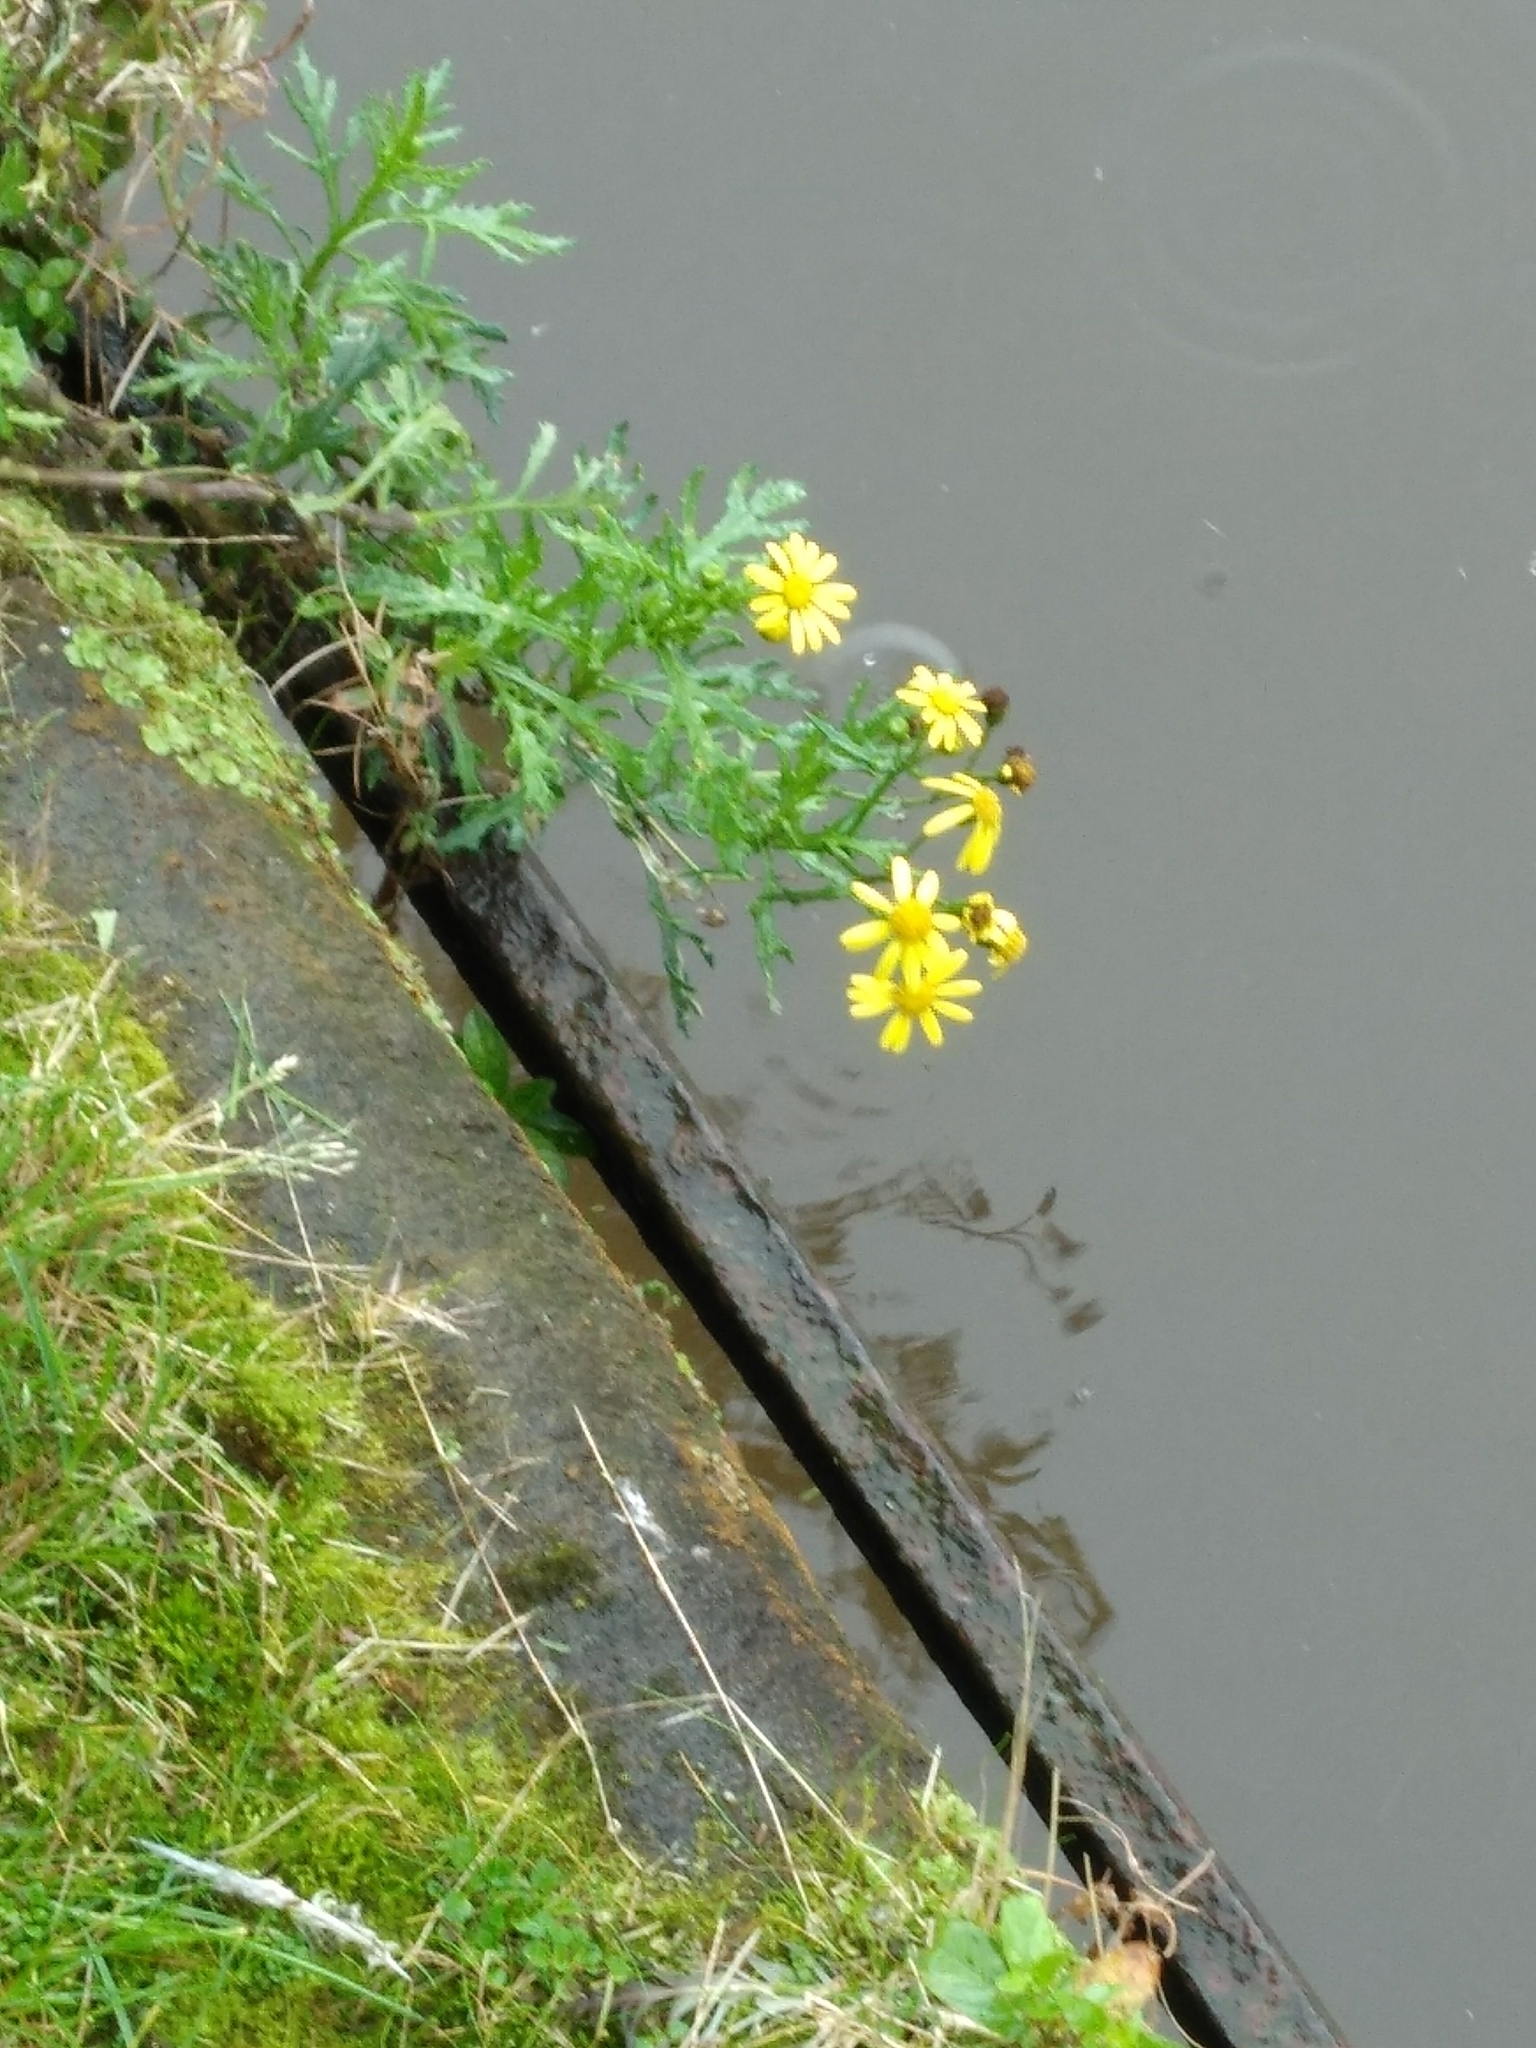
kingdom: Plantae
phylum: Tracheophyta
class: Magnoliopsida
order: Asterales
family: Asteraceae
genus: Senecio
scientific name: Senecio squalidus
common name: Oxford ragwort
